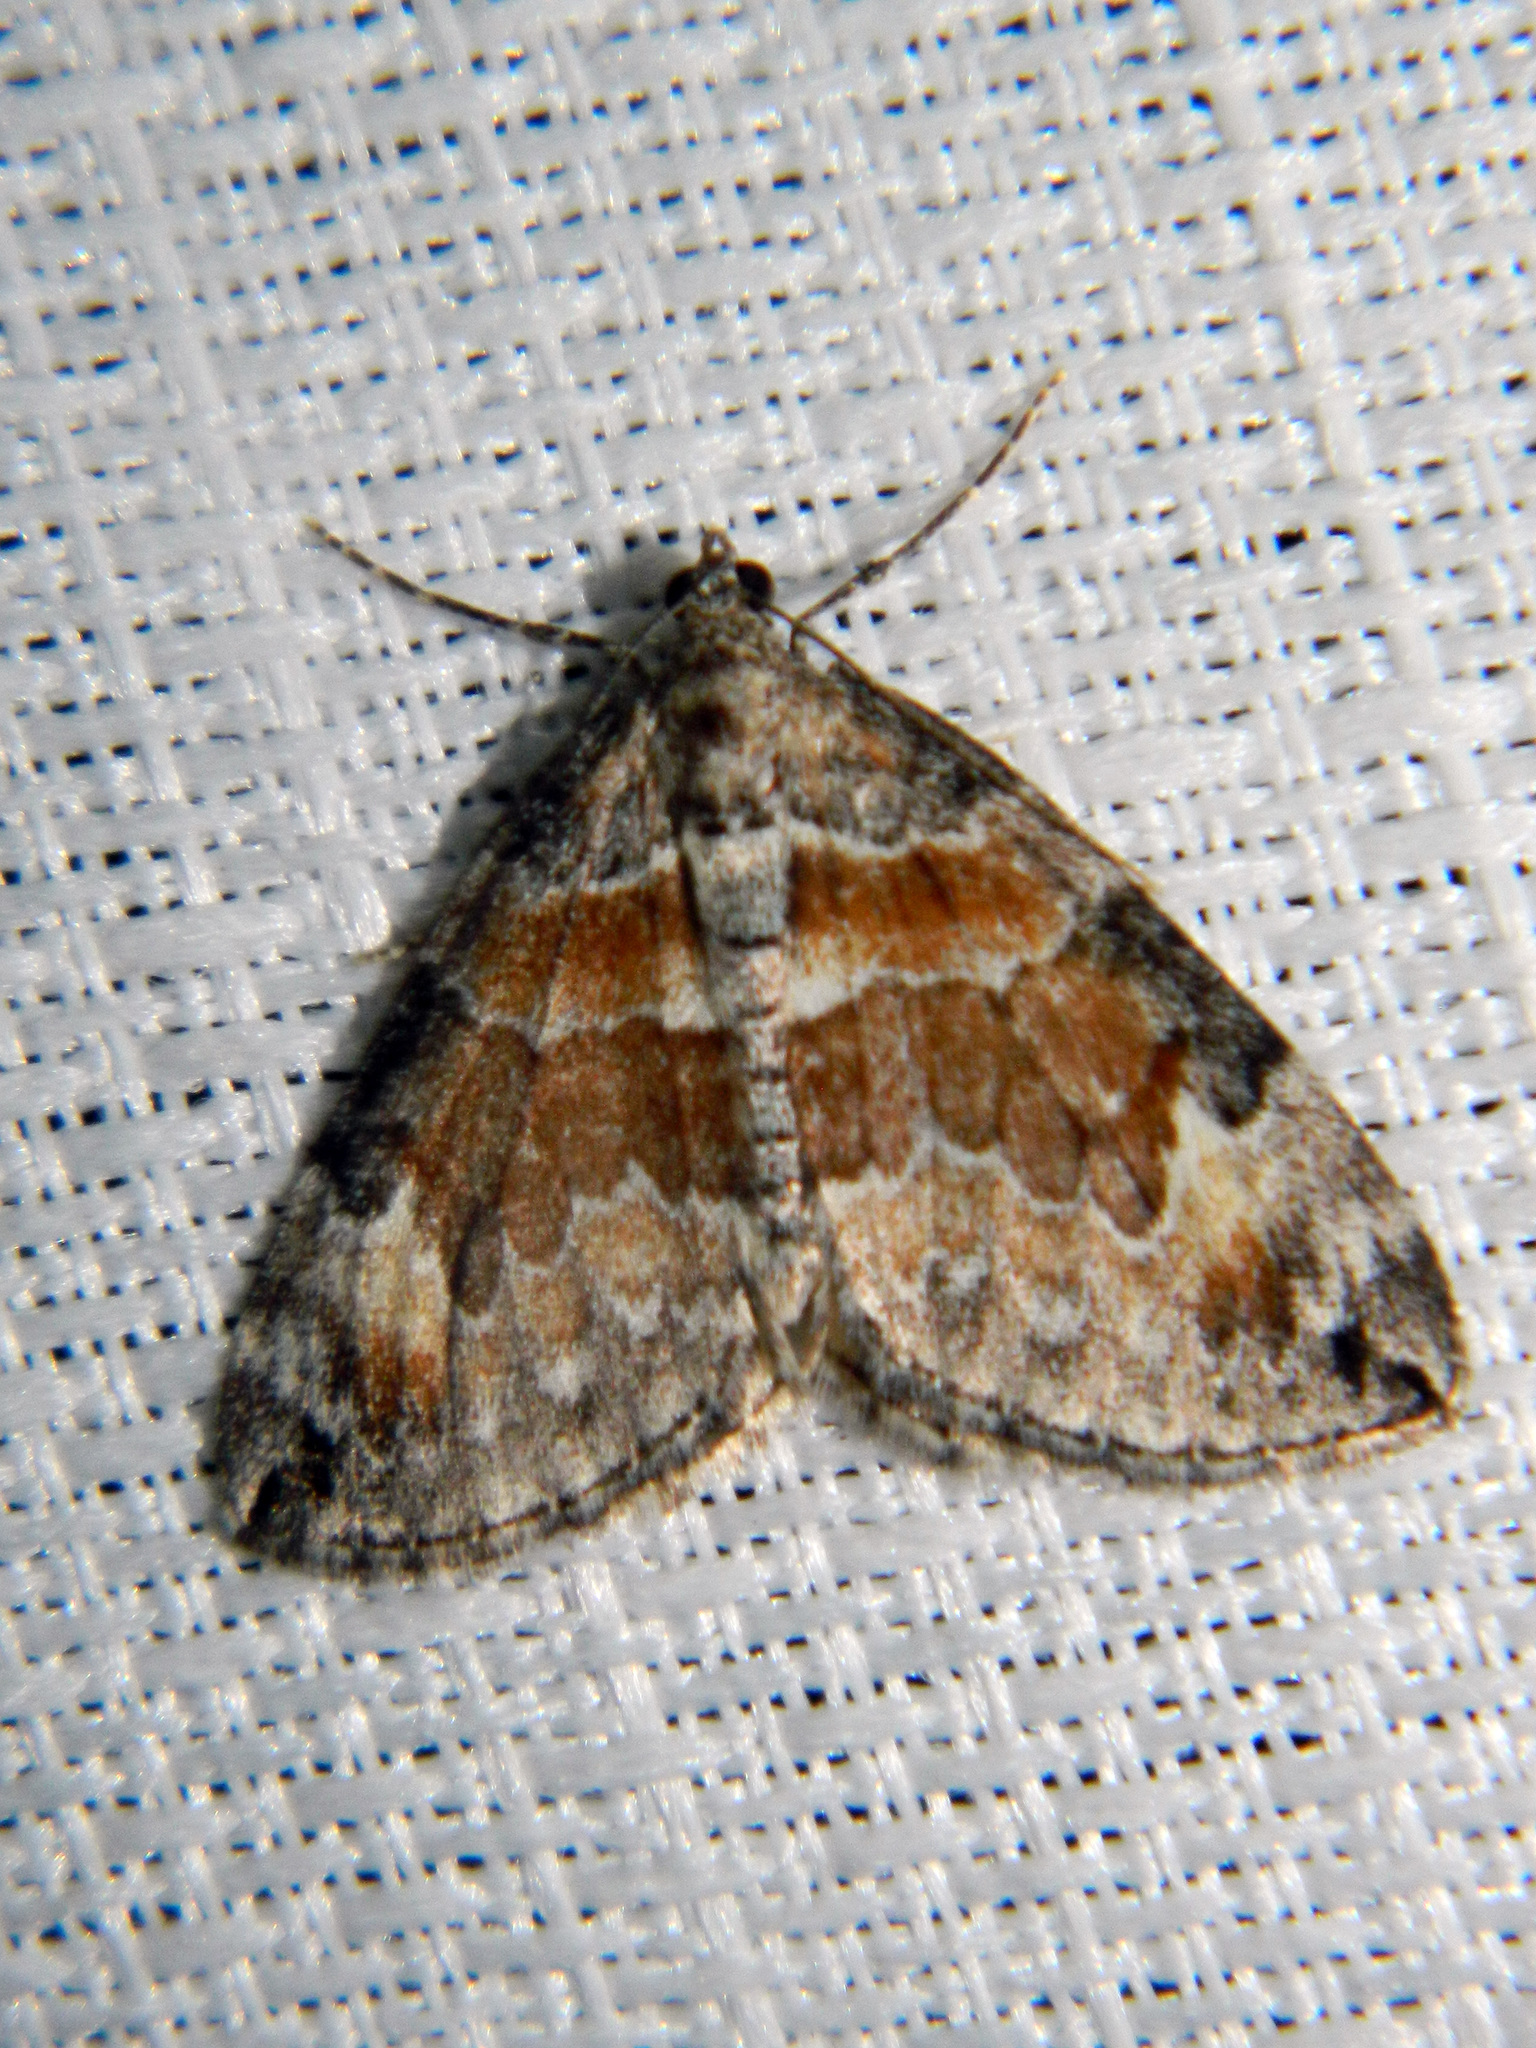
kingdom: Animalia
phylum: Arthropoda
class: Insecta
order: Lepidoptera
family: Geometridae
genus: Dysstroma
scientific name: Dysstroma hersiliata
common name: Orange-barred carpet
